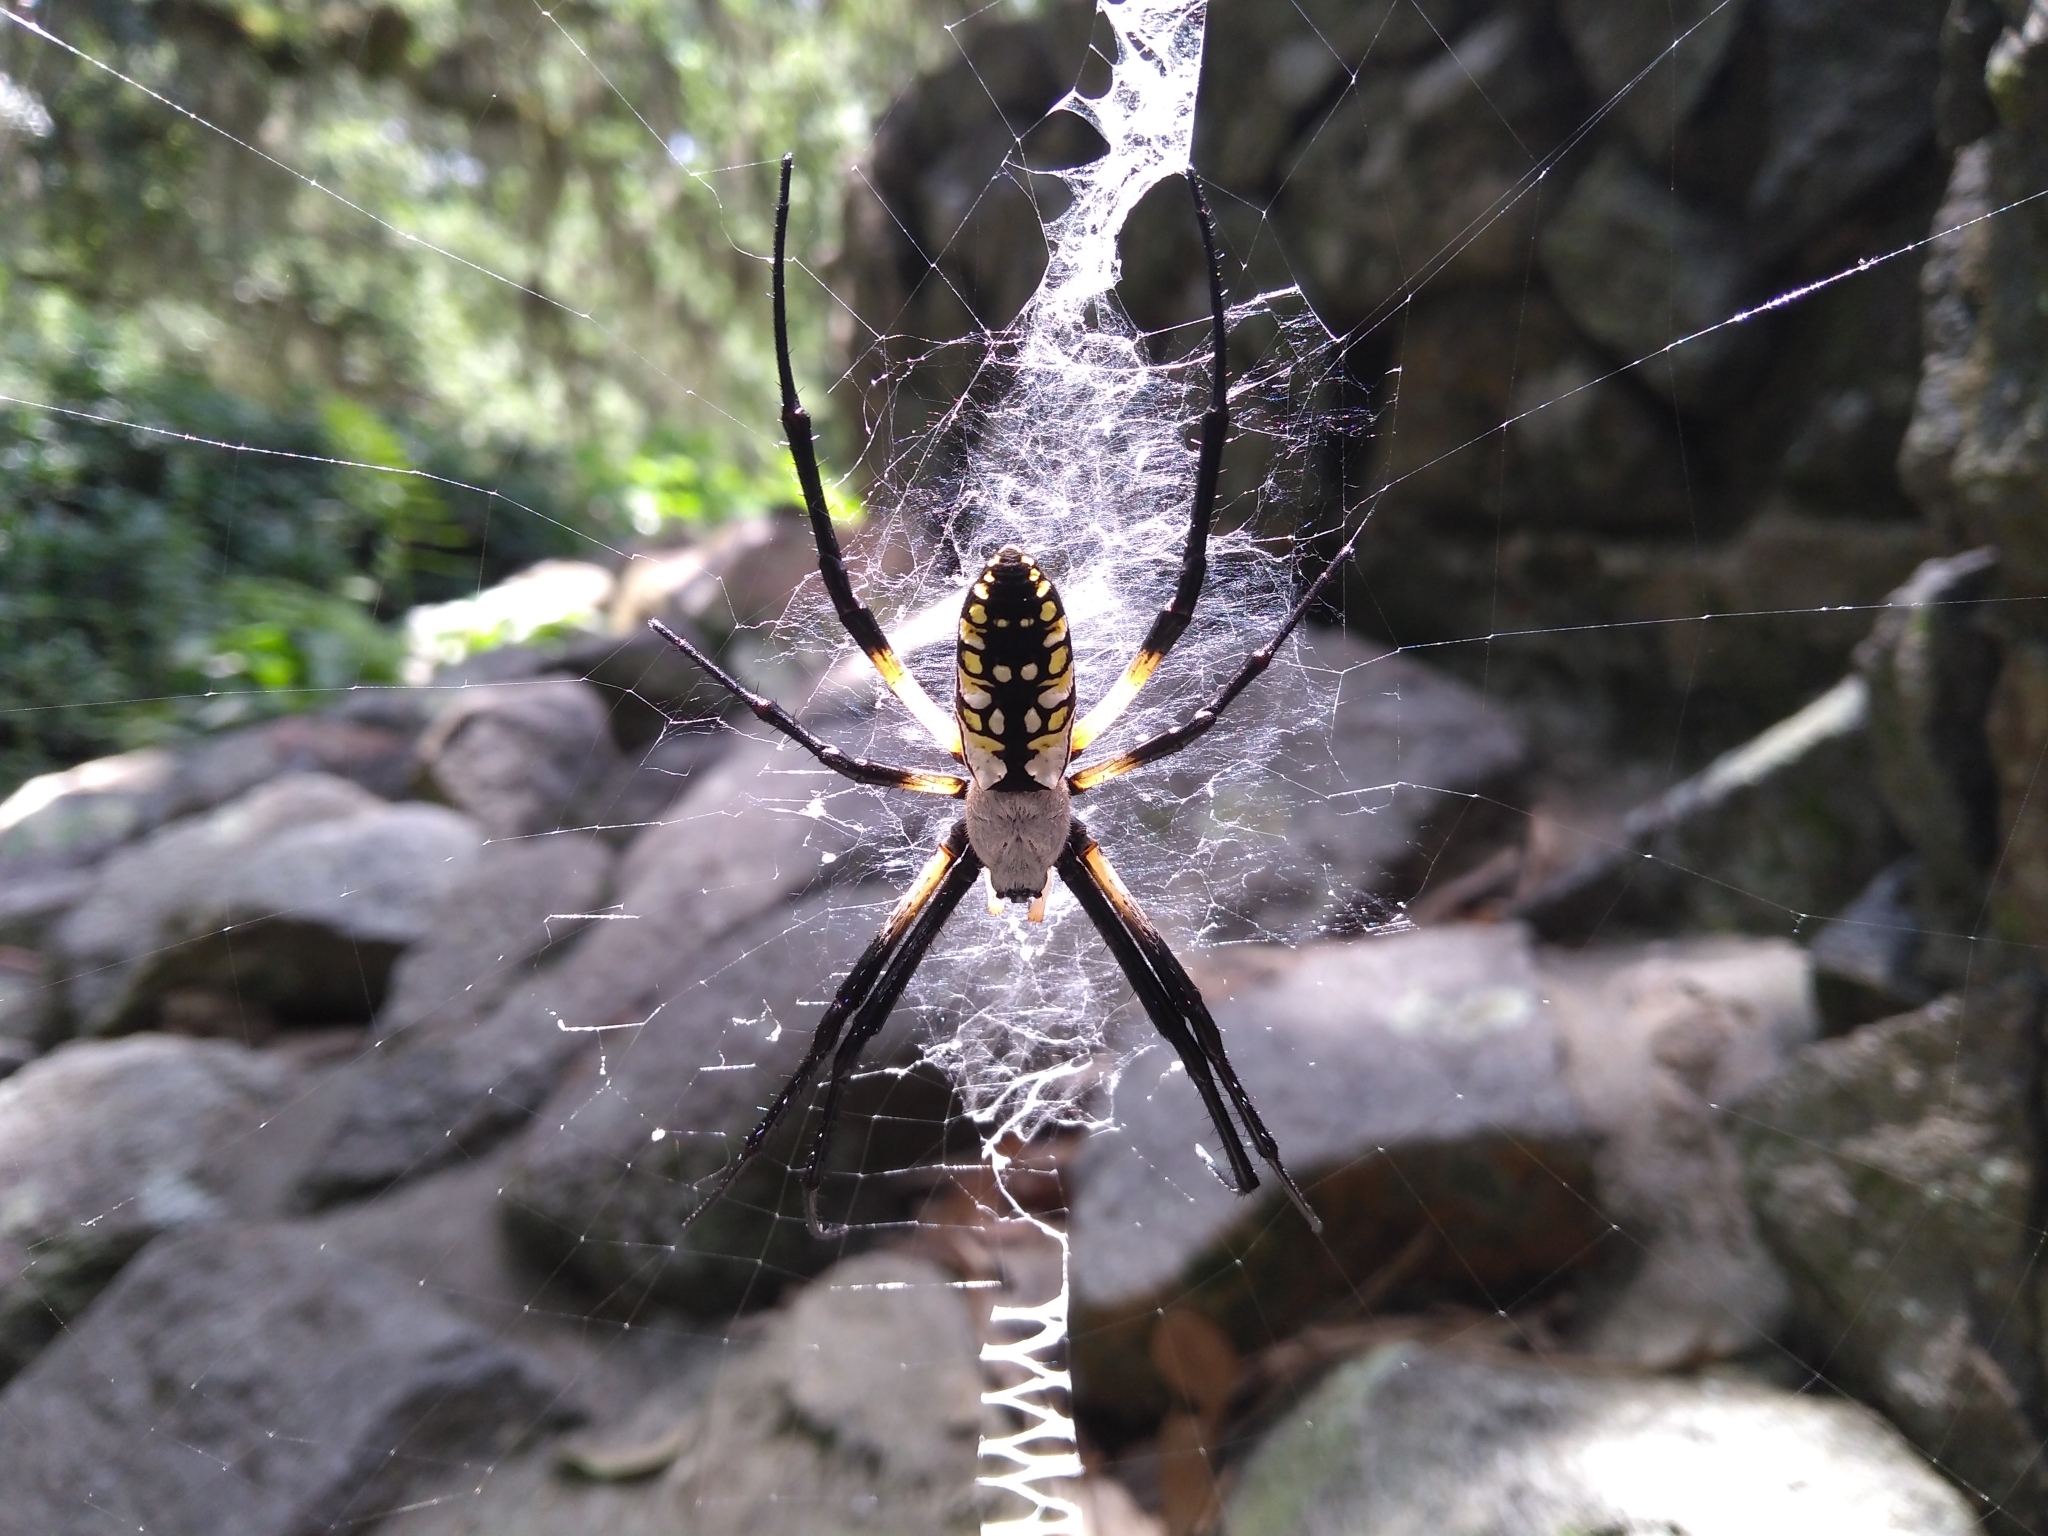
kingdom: Animalia
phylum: Arthropoda
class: Arachnida
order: Araneae
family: Araneidae
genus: Argiope
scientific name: Argiope aurantia
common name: Orb weavers
